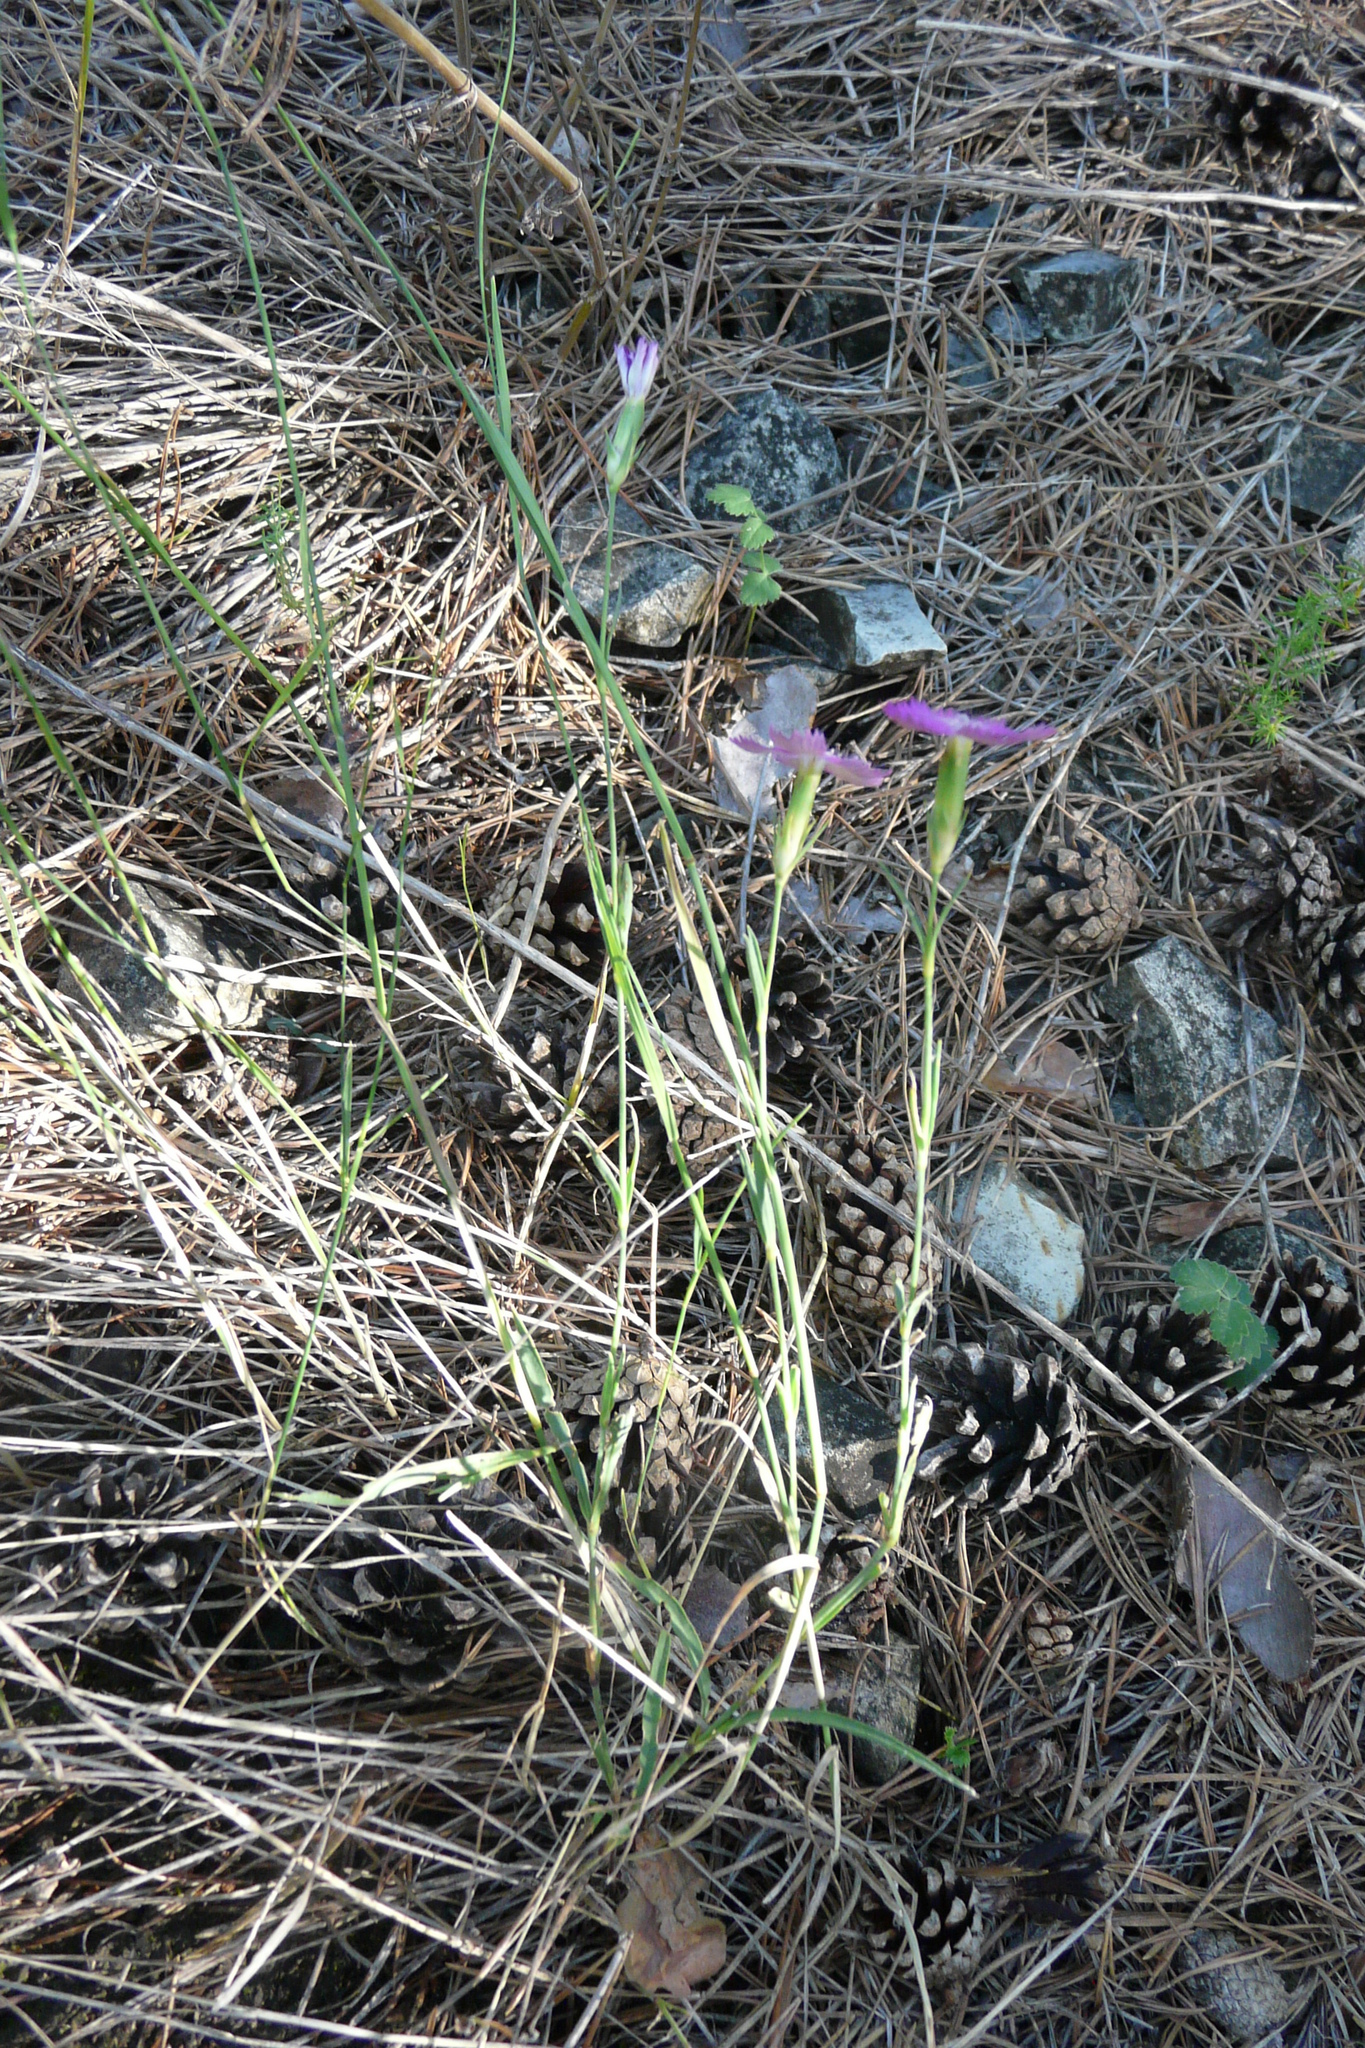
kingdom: Plantae
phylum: Tracheophyta
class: Magnoliopsida
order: Caryophyllales
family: Caryophyllaceae
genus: Dianthus
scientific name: Dianthus campestris
